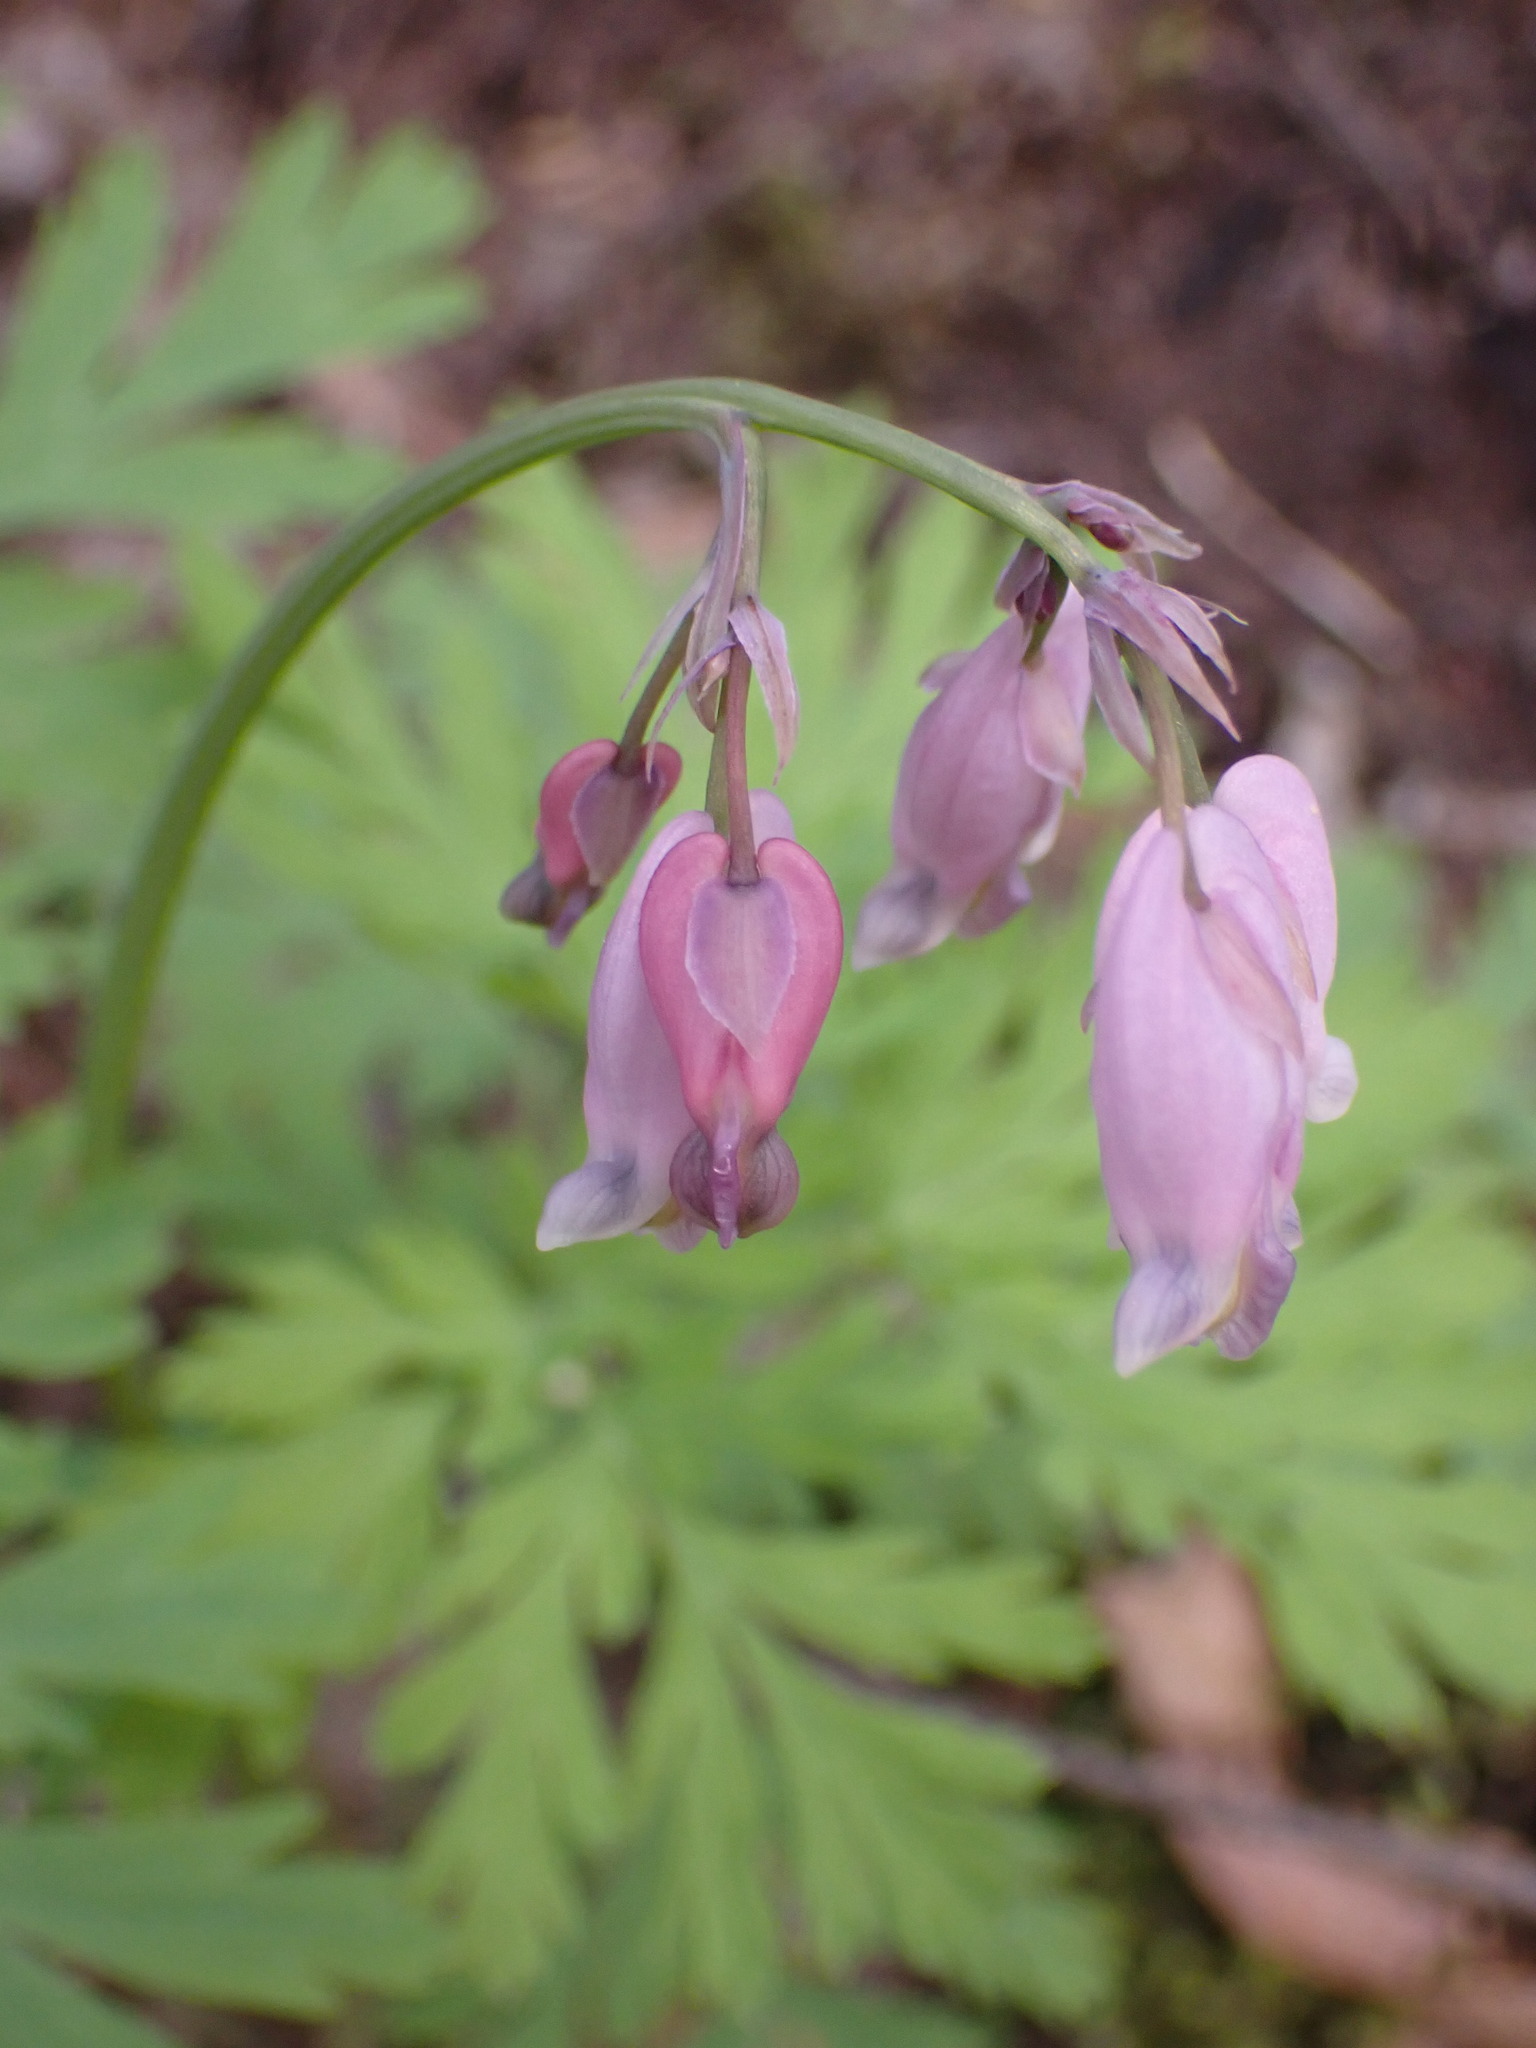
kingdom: Plantae
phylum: Tracheophyta
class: Magnoliopsida
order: Ranunculales
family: Papaveraceae
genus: Dicentra
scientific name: Dicentra formosa
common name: Bleeding-heart
